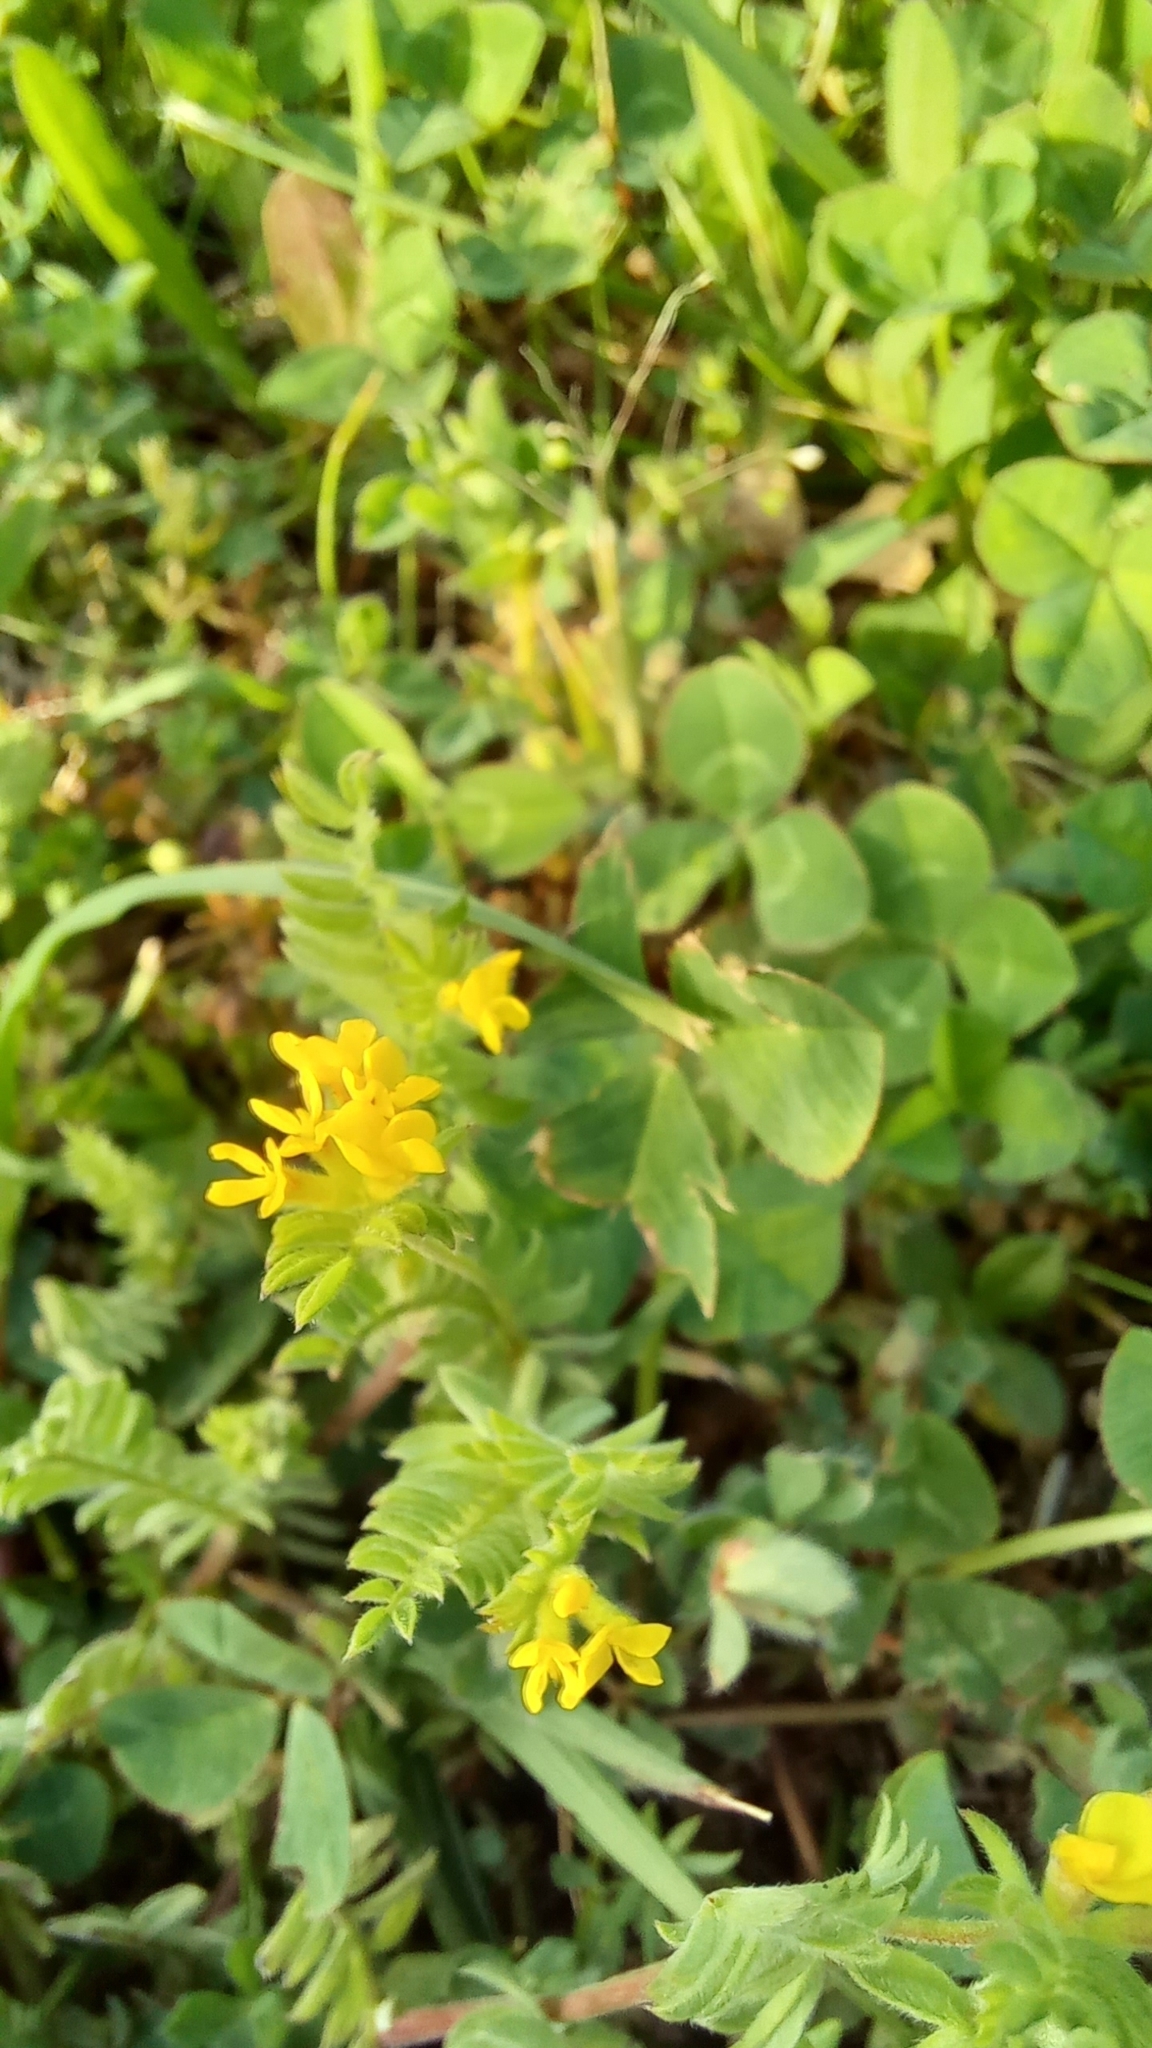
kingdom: Plantae
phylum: Tracheophyta
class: Magnoliopsida
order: Fabales
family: Fabaceae
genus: Ornithopus
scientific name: Ornithopus compressus
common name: Yellow serradella
